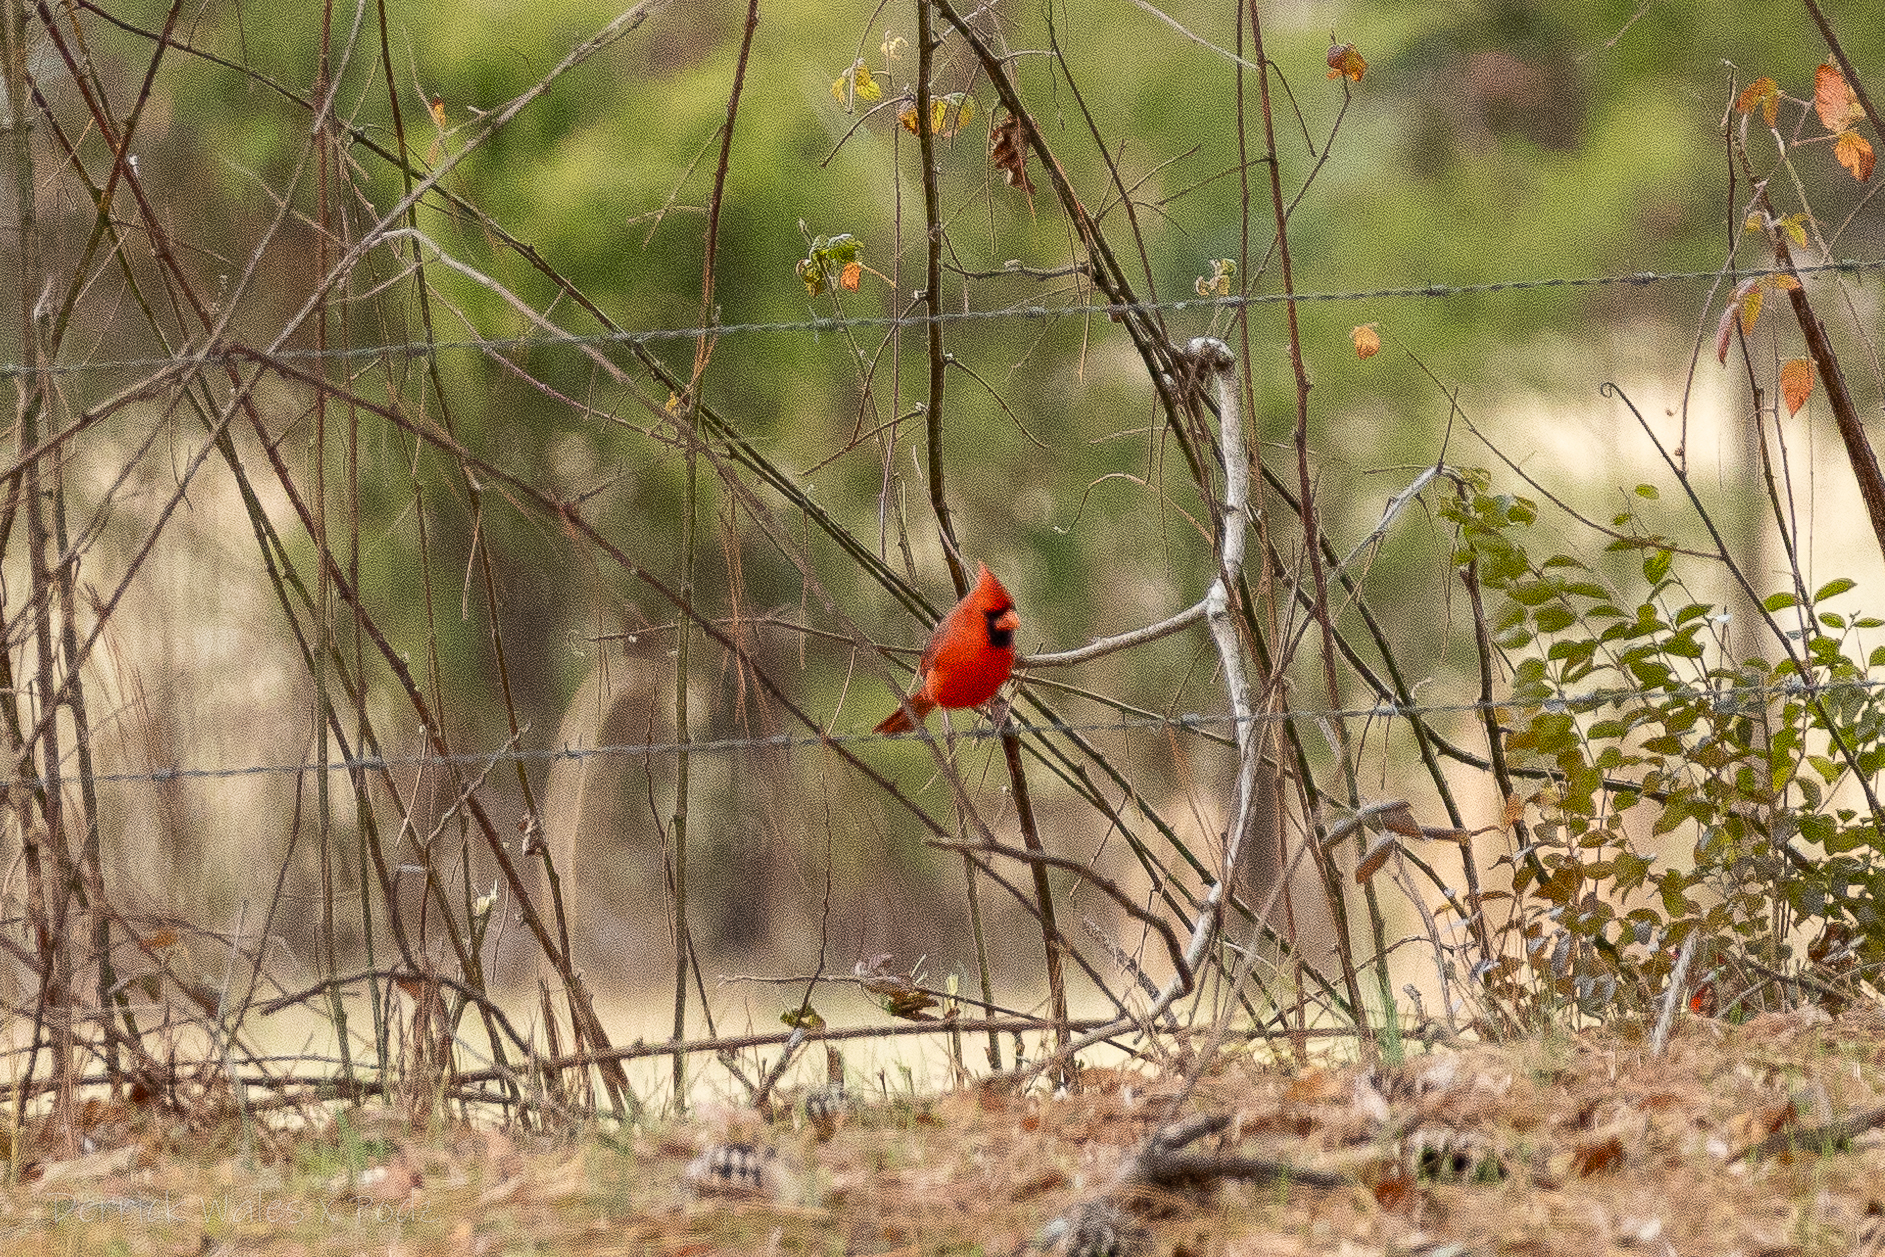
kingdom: Animalia
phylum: Chordata
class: Aves
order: Passeriformes
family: Cardinalidae
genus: Cardinalis
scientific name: Cardinalis cardinalis
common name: Northern cardinal
